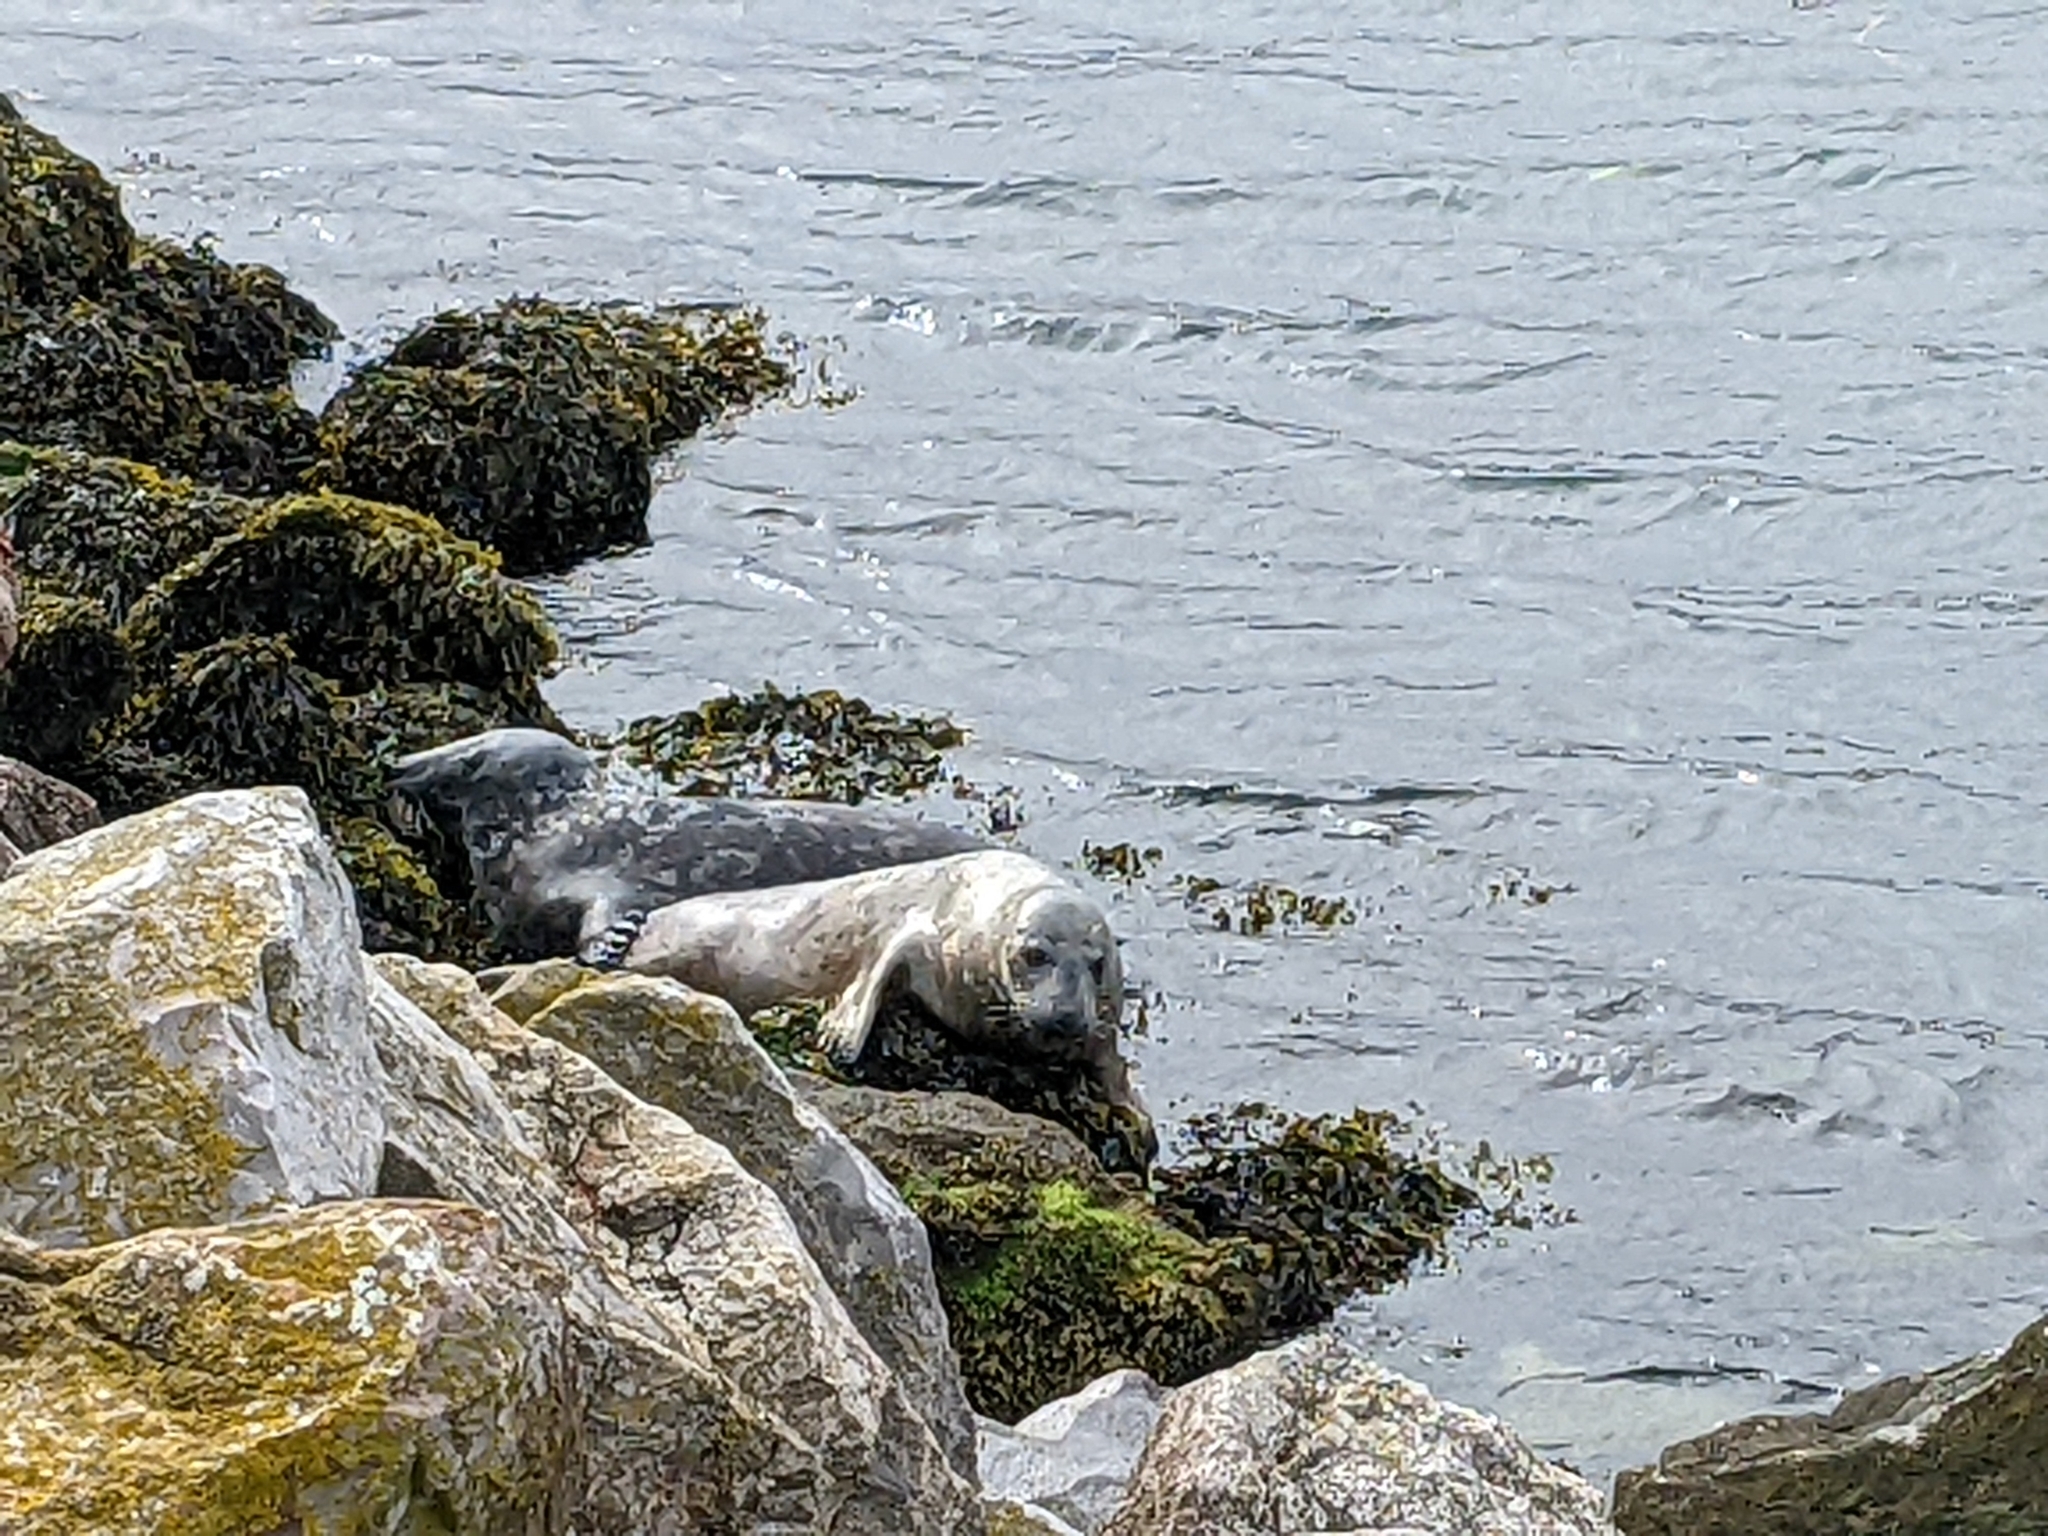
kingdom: Animalia
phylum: Chordata
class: Mammalia
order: Carnivora
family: Phocidae
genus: Halichoerus
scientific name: Halichoerus grypus
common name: Grey seal
